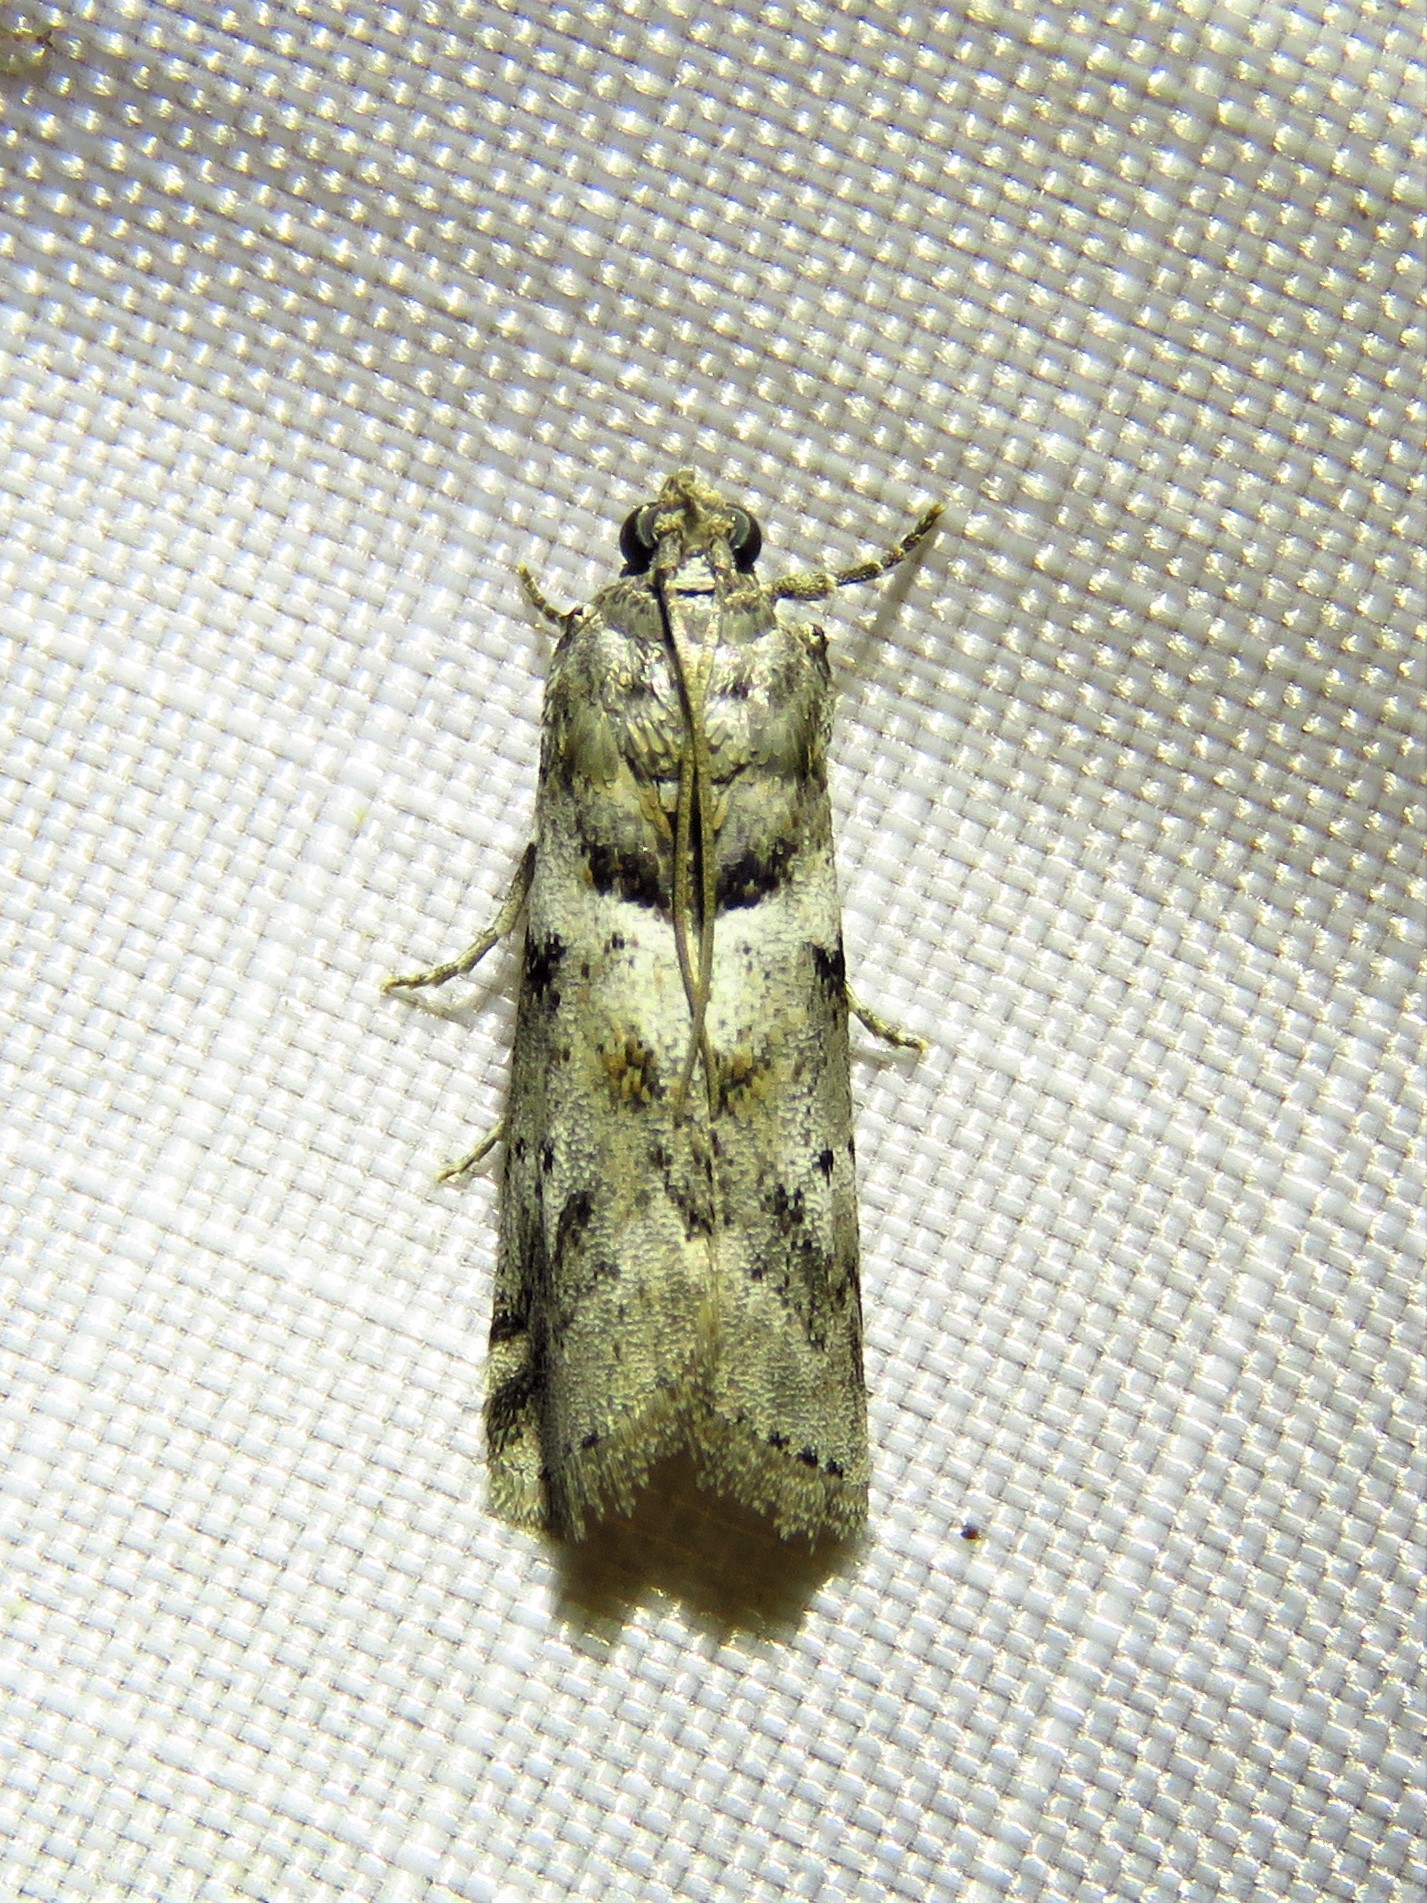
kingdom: Animalia
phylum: Arthropoda
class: Insecta
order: Lepidoptera
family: Pyralidae
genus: Salebriaria
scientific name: Salebriaria annulosella
